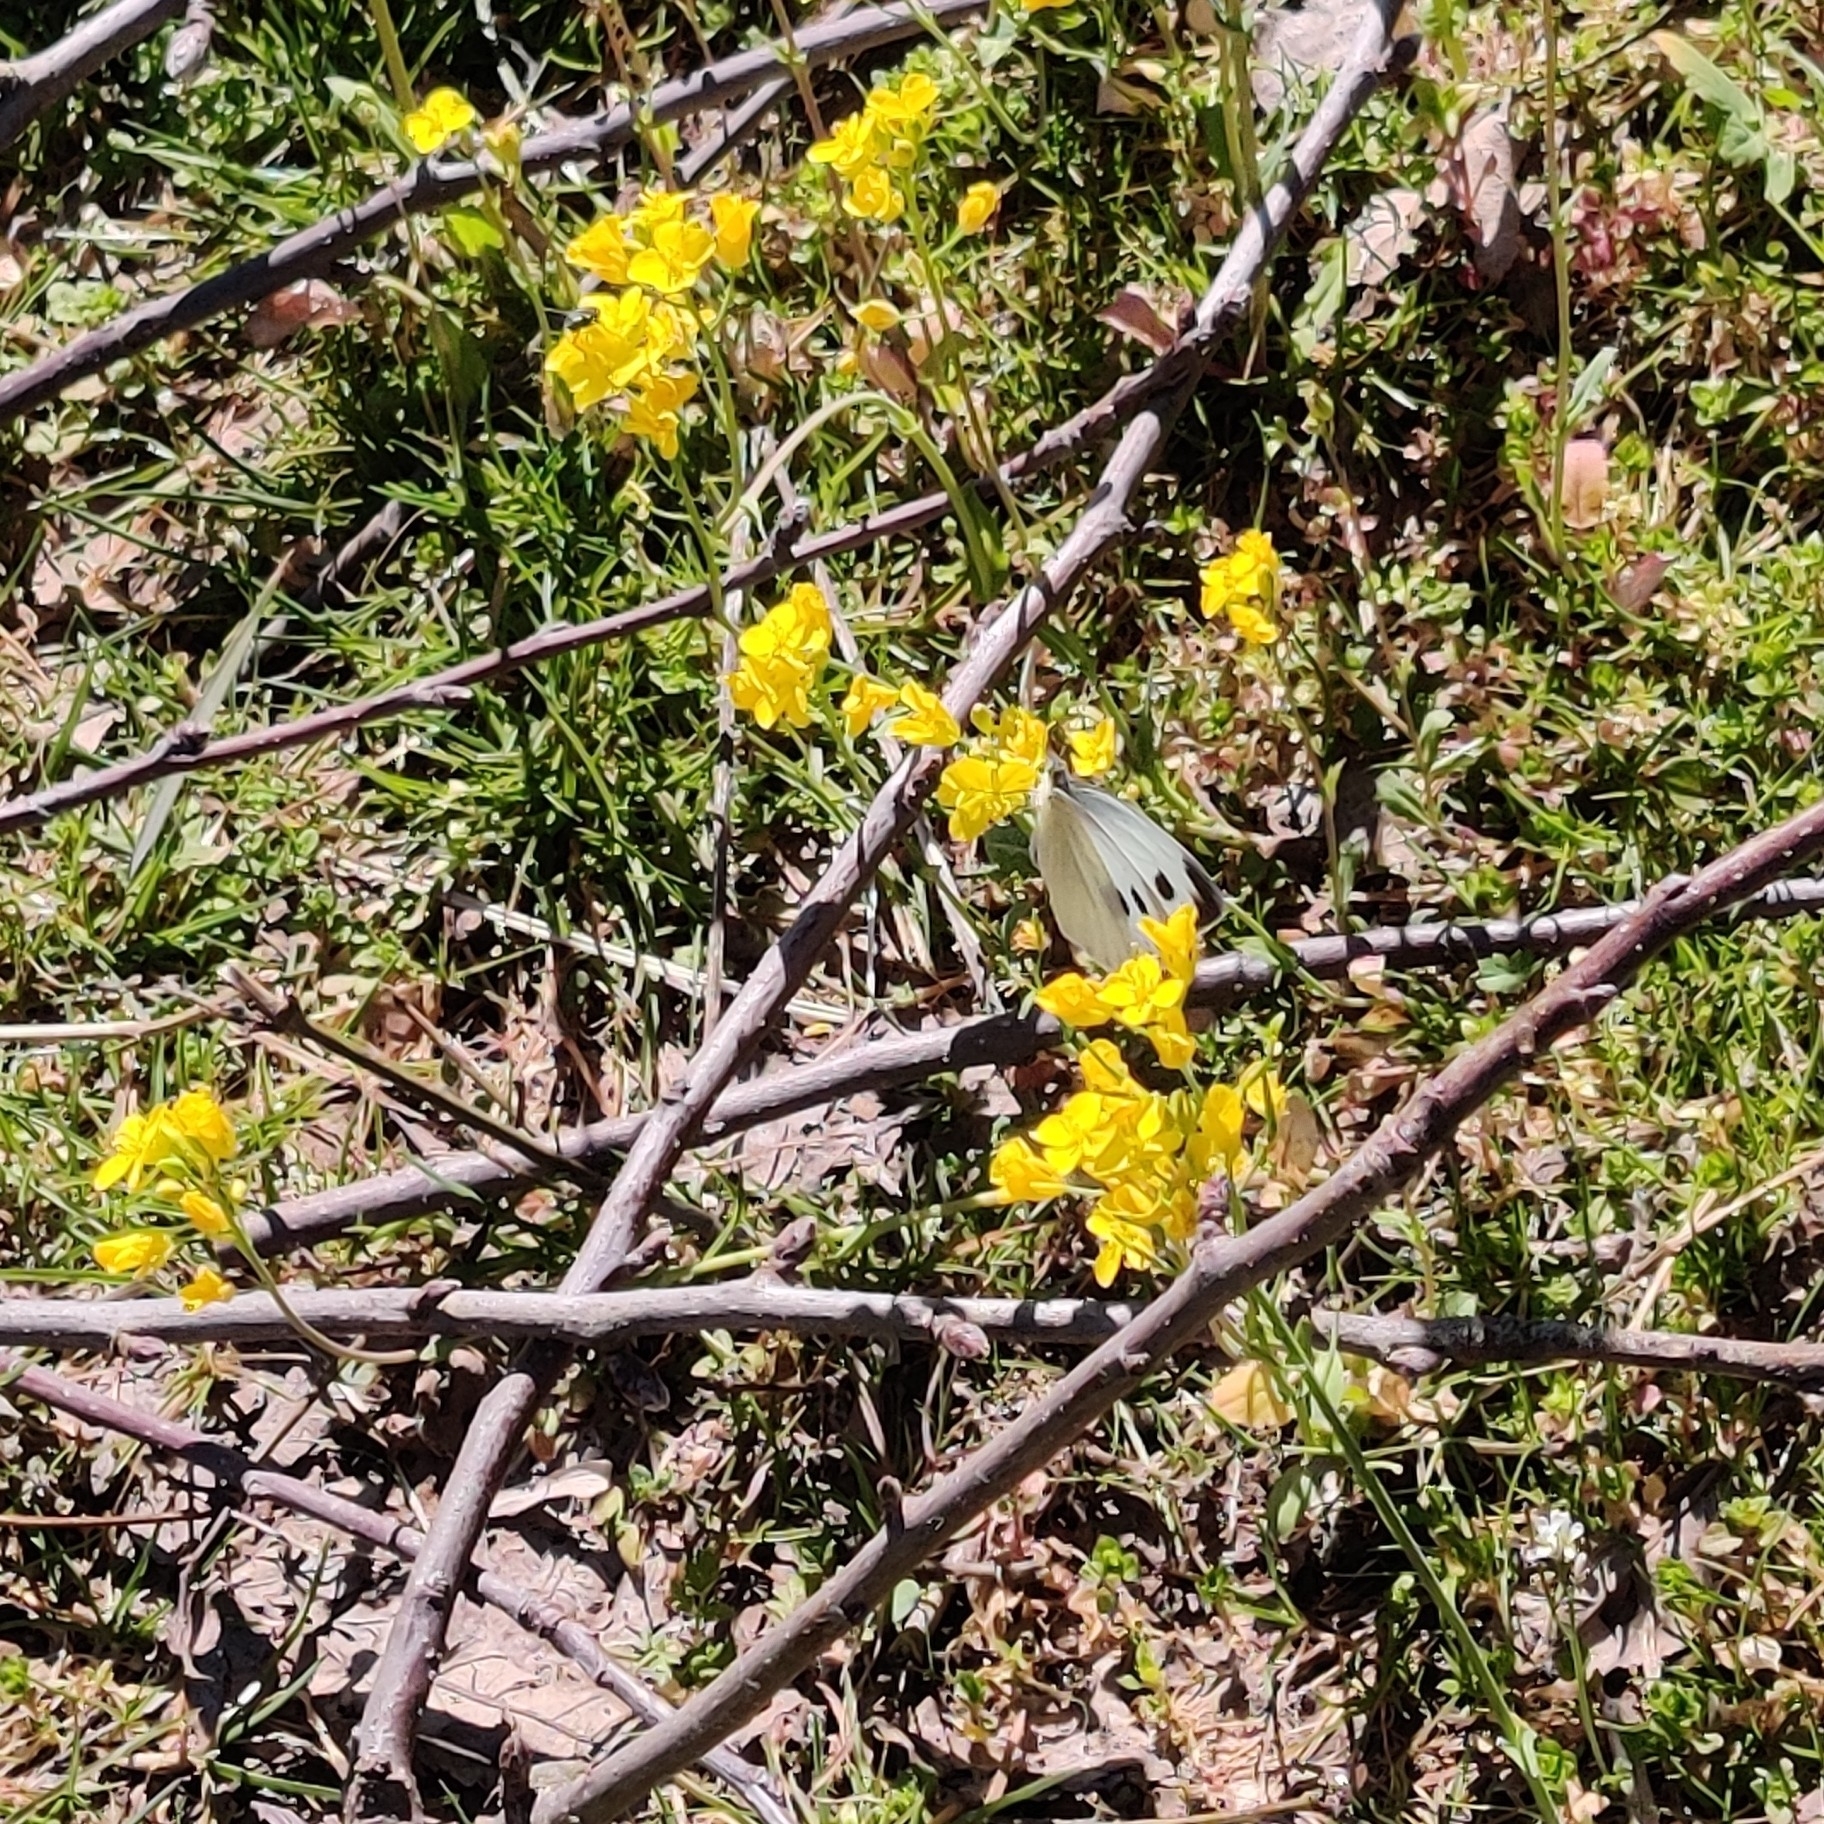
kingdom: Animalia
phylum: Arthropoda
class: Insecta
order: Lepidoptera
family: Pieridae
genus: Pieris
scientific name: Pieris canidia
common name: Indian cabbage white
